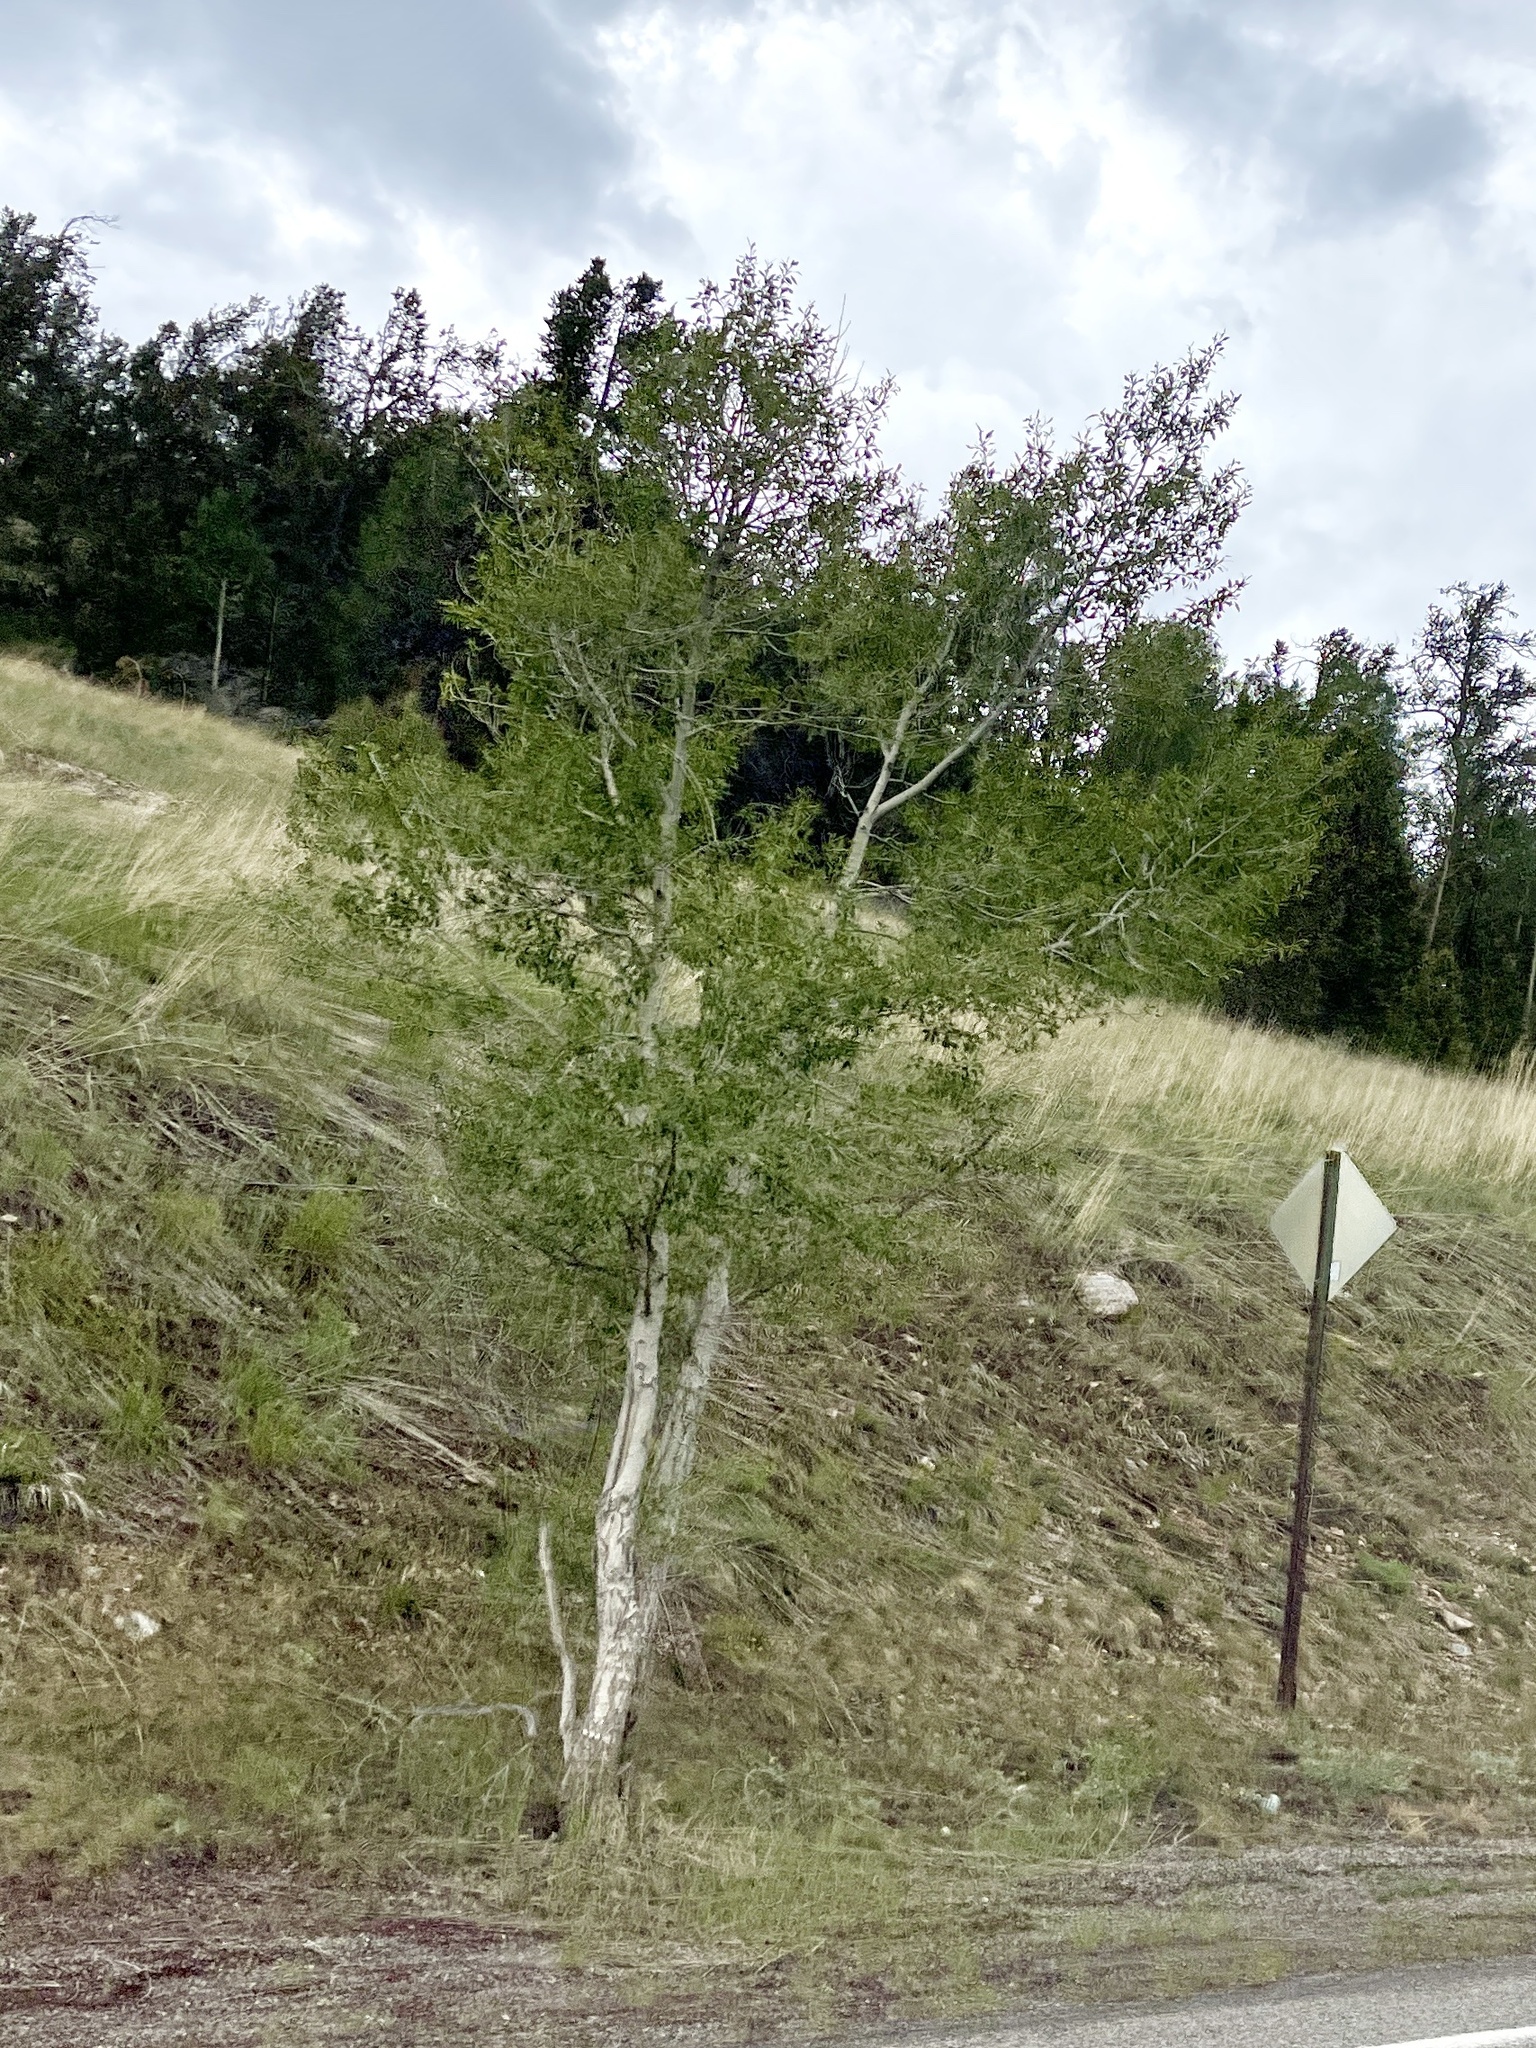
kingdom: Plantae
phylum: Tracheophyta
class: Magnoliopsida
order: Malpighiales
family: Salicaceae
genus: Populus
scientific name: Populus tremuloides
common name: Quaking aspen
